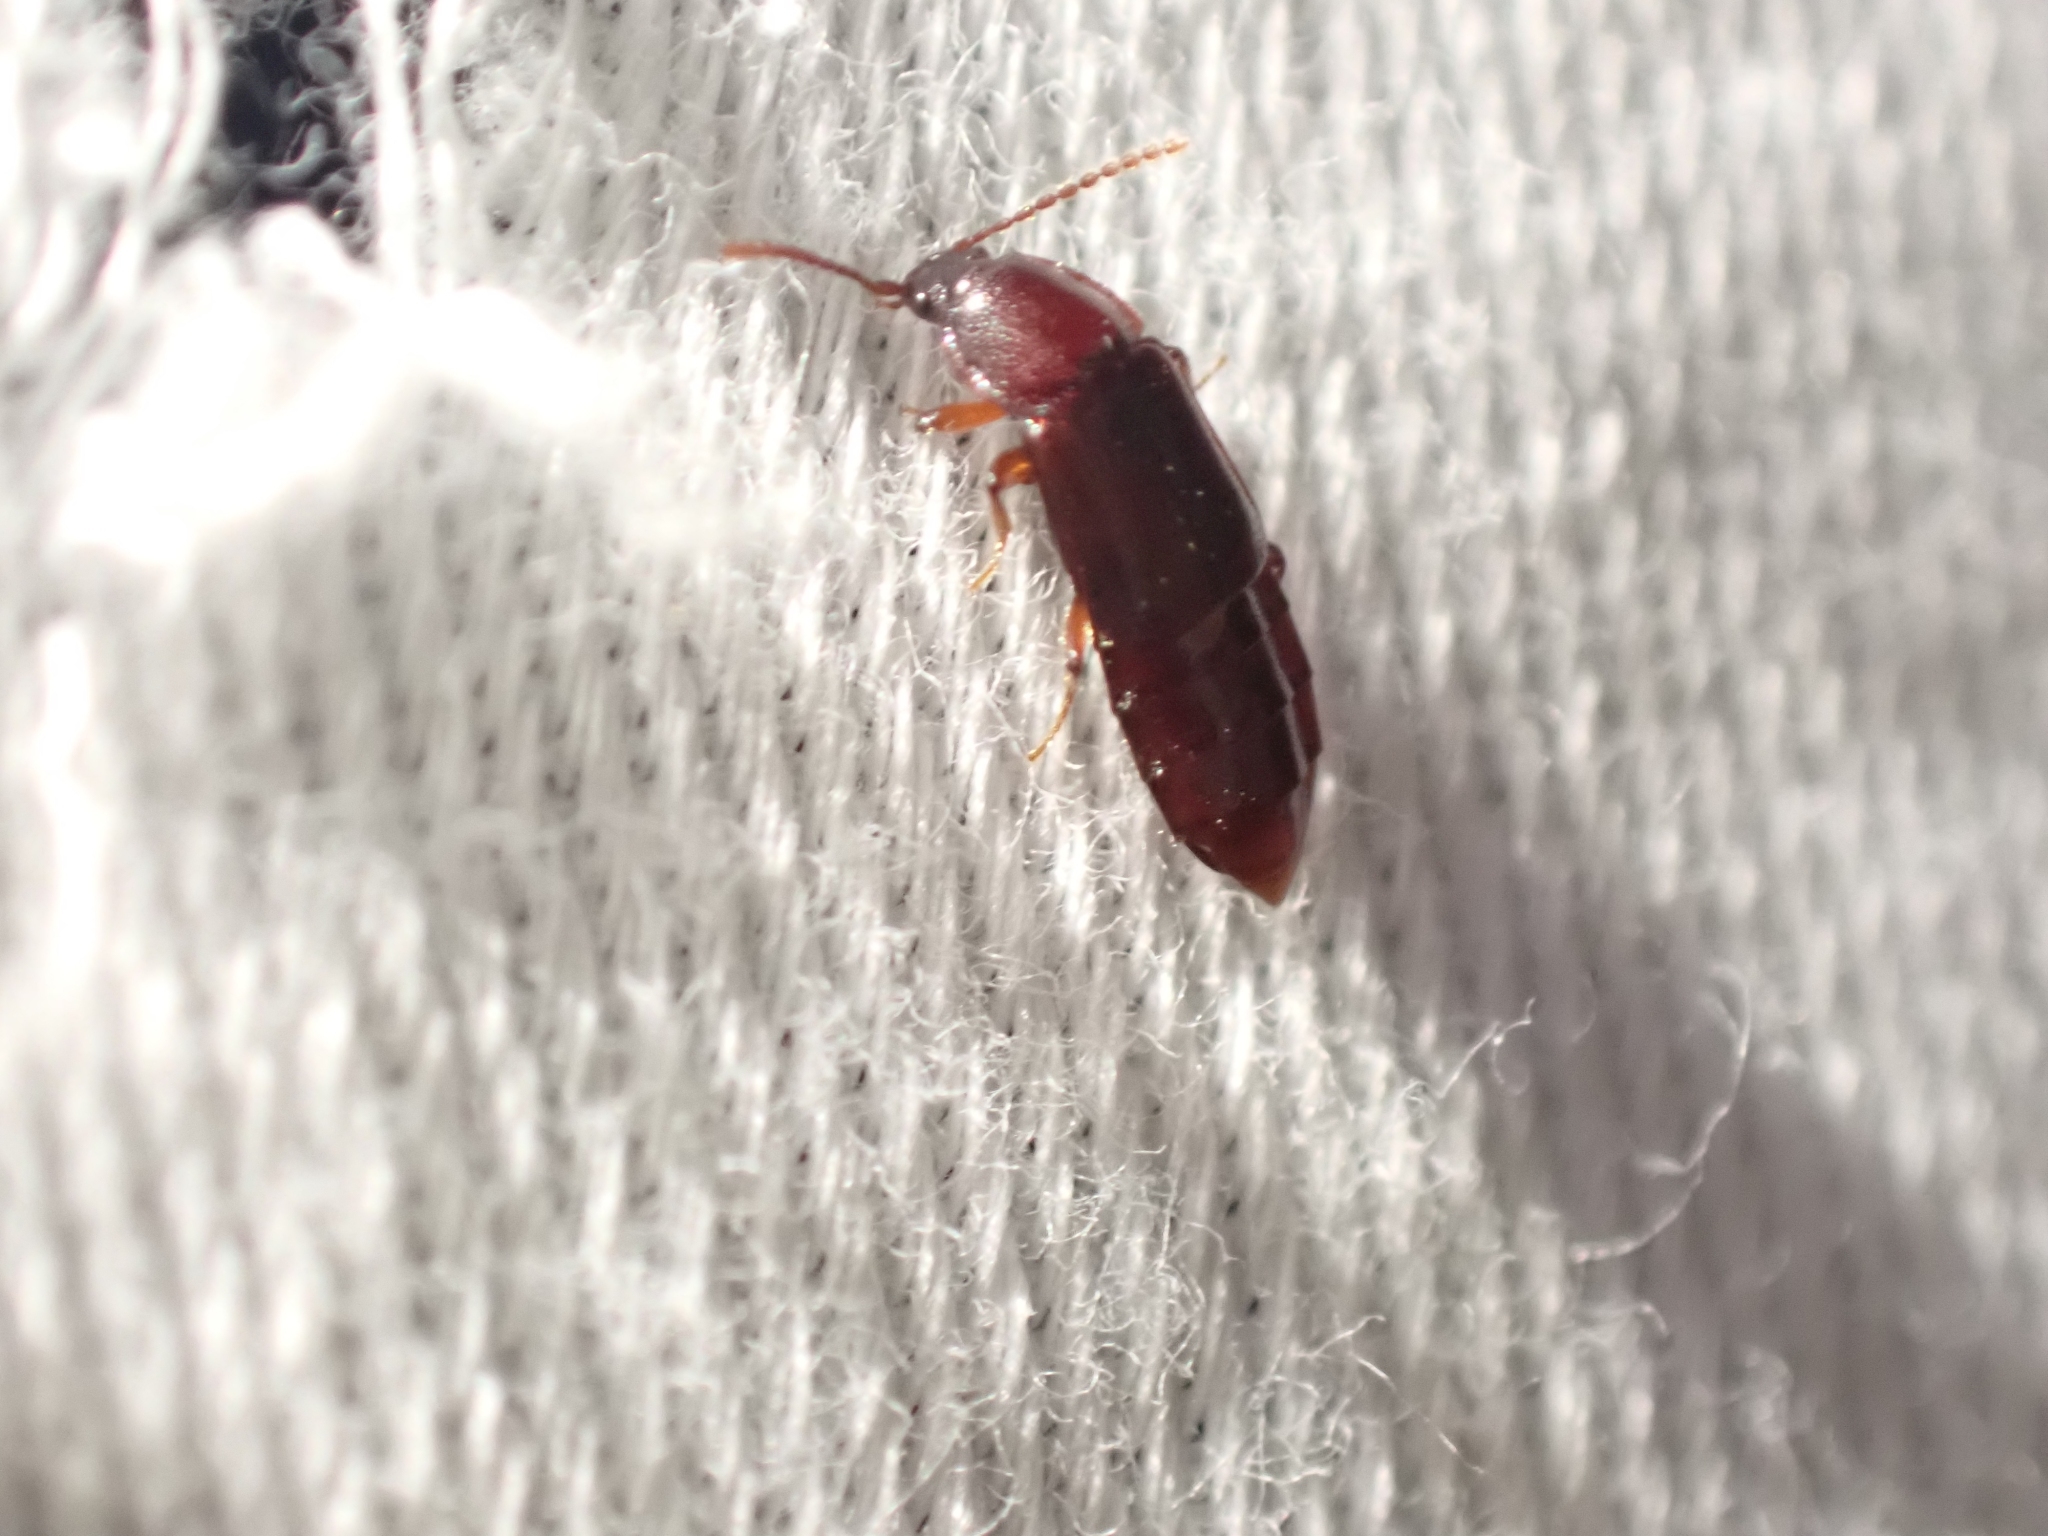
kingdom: Animalia
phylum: Arthropoda
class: Insecta
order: Coleoptera
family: Staphylinidae
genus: Acidota
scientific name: Acidota crenata
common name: Staph beetle
